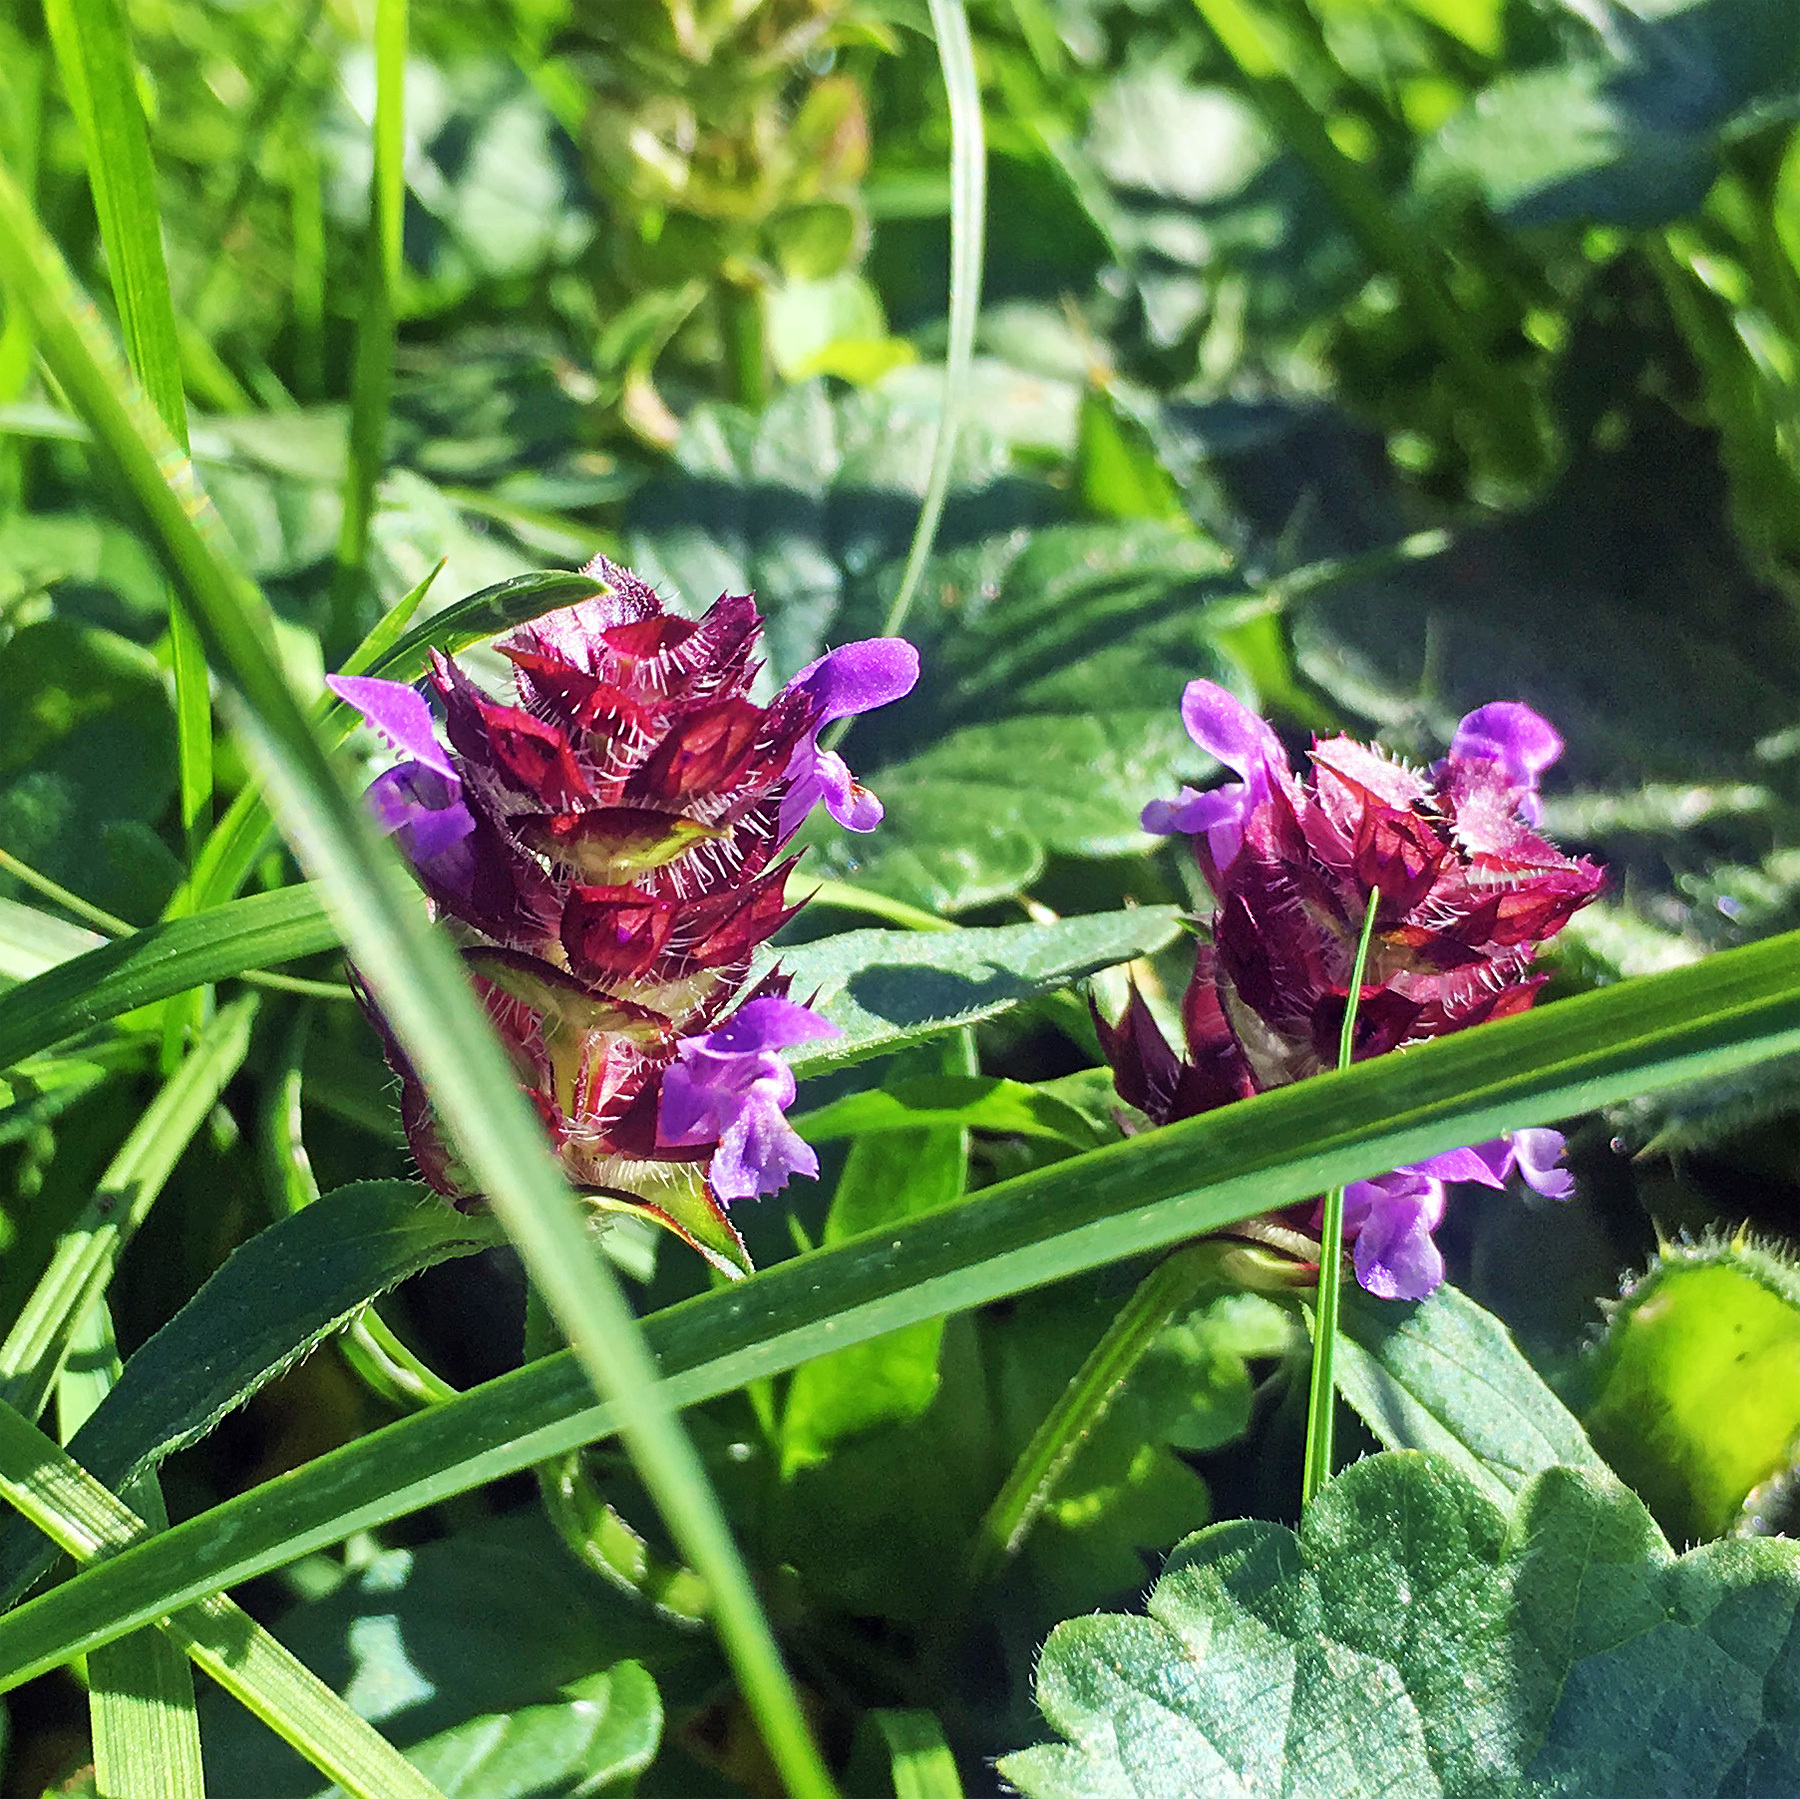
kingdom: Plantae
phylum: Tracheophyta
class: Magnoliopsida
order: Lamiales
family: Lamiaceae
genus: Prunella
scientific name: Prunella vulgaris
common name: Heal-all
